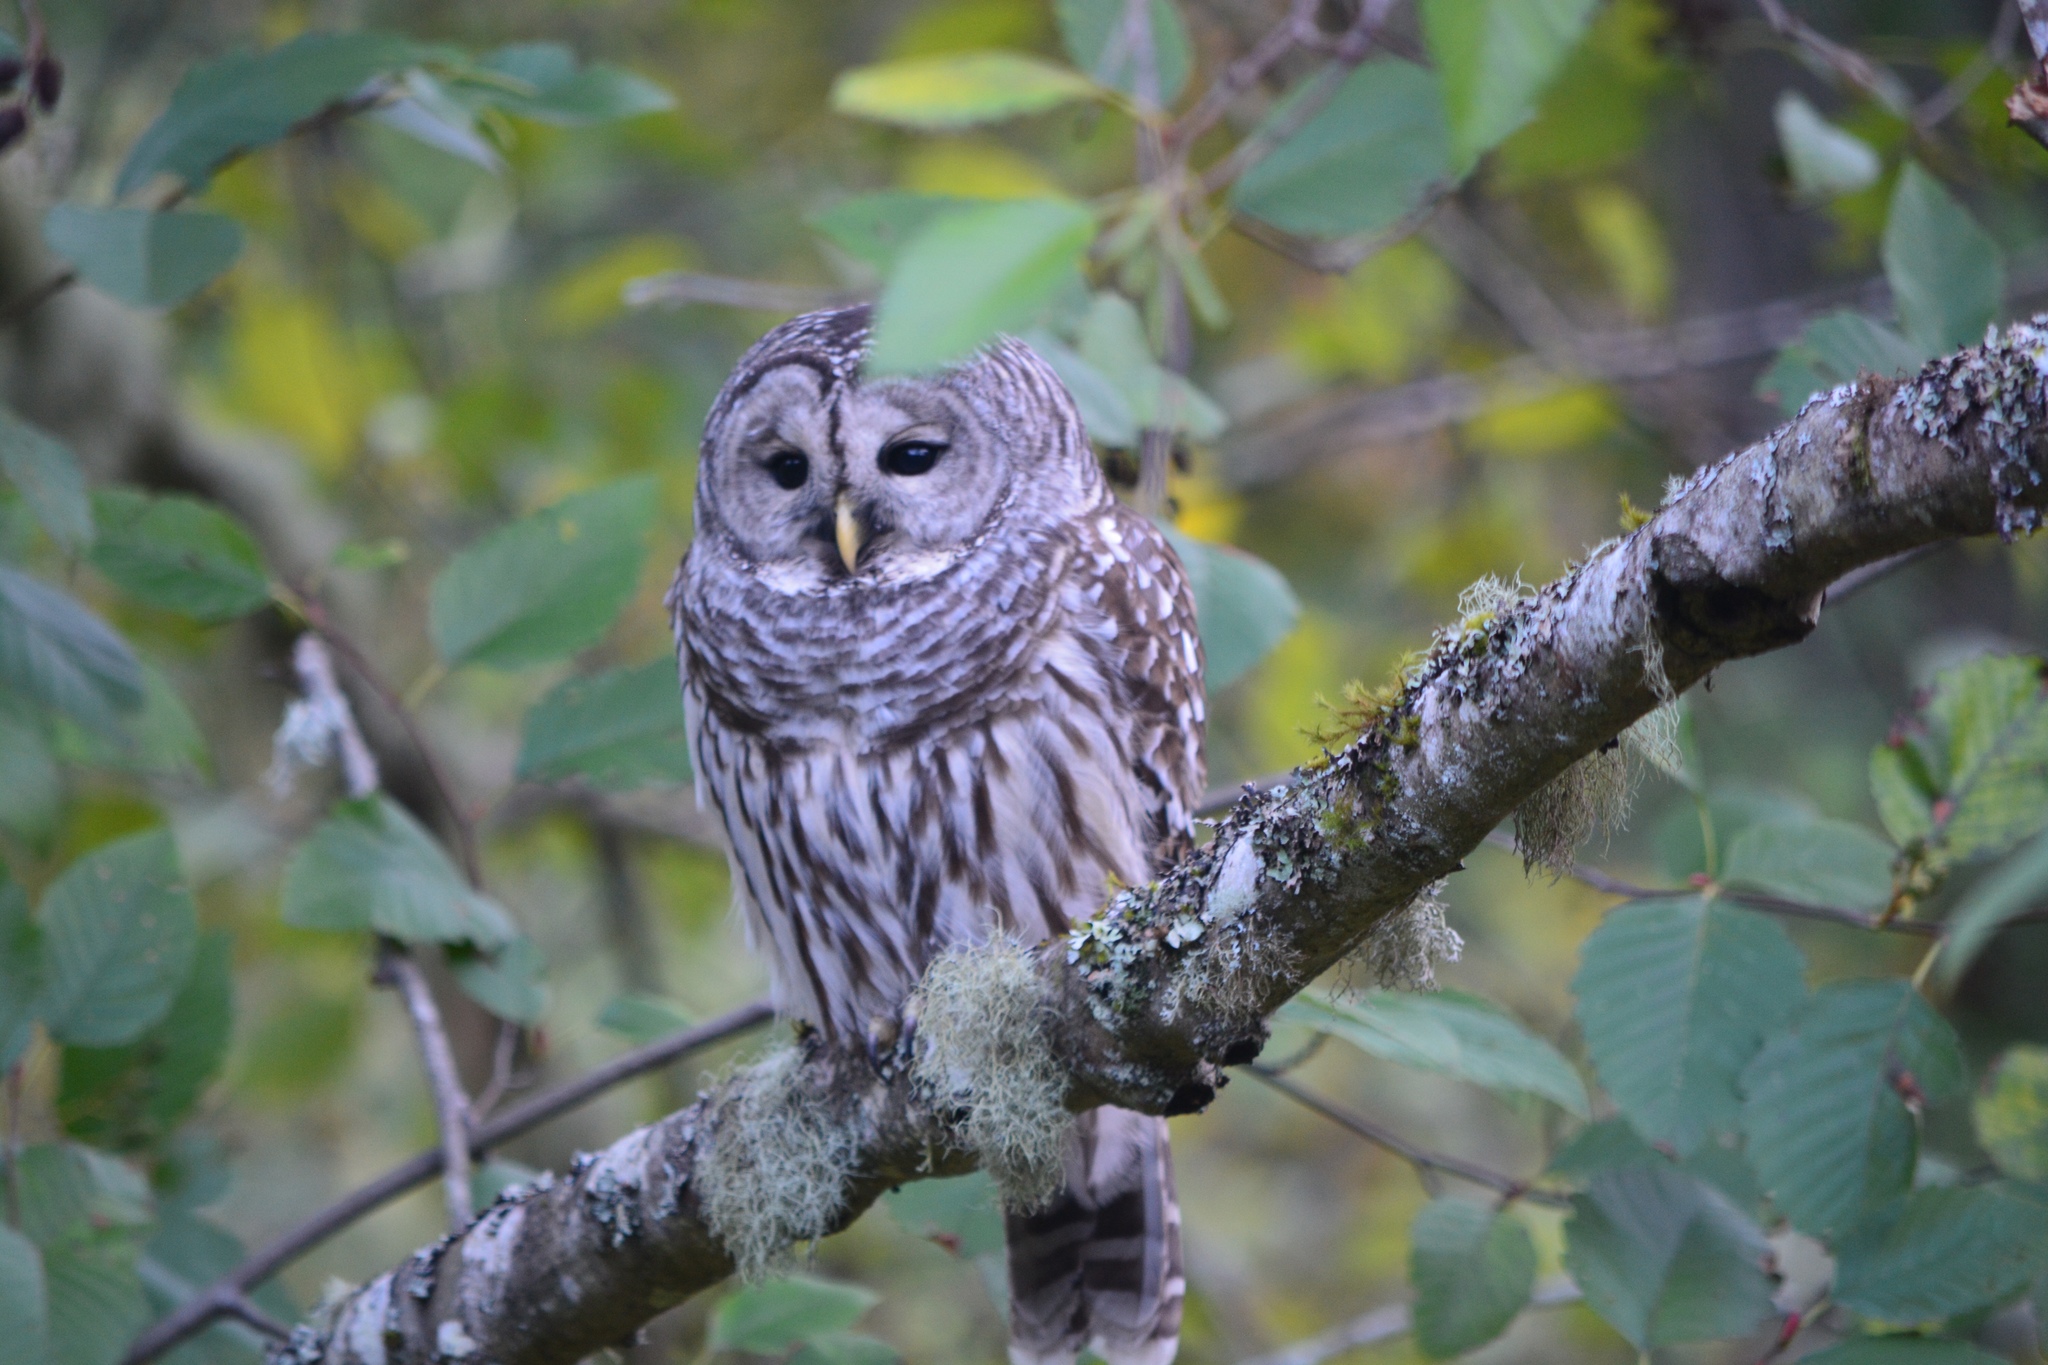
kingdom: Animalia
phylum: Chordata
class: Aves
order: Strigiformes
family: Strigidae
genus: Strix
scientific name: Strix varia
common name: Barred owl
